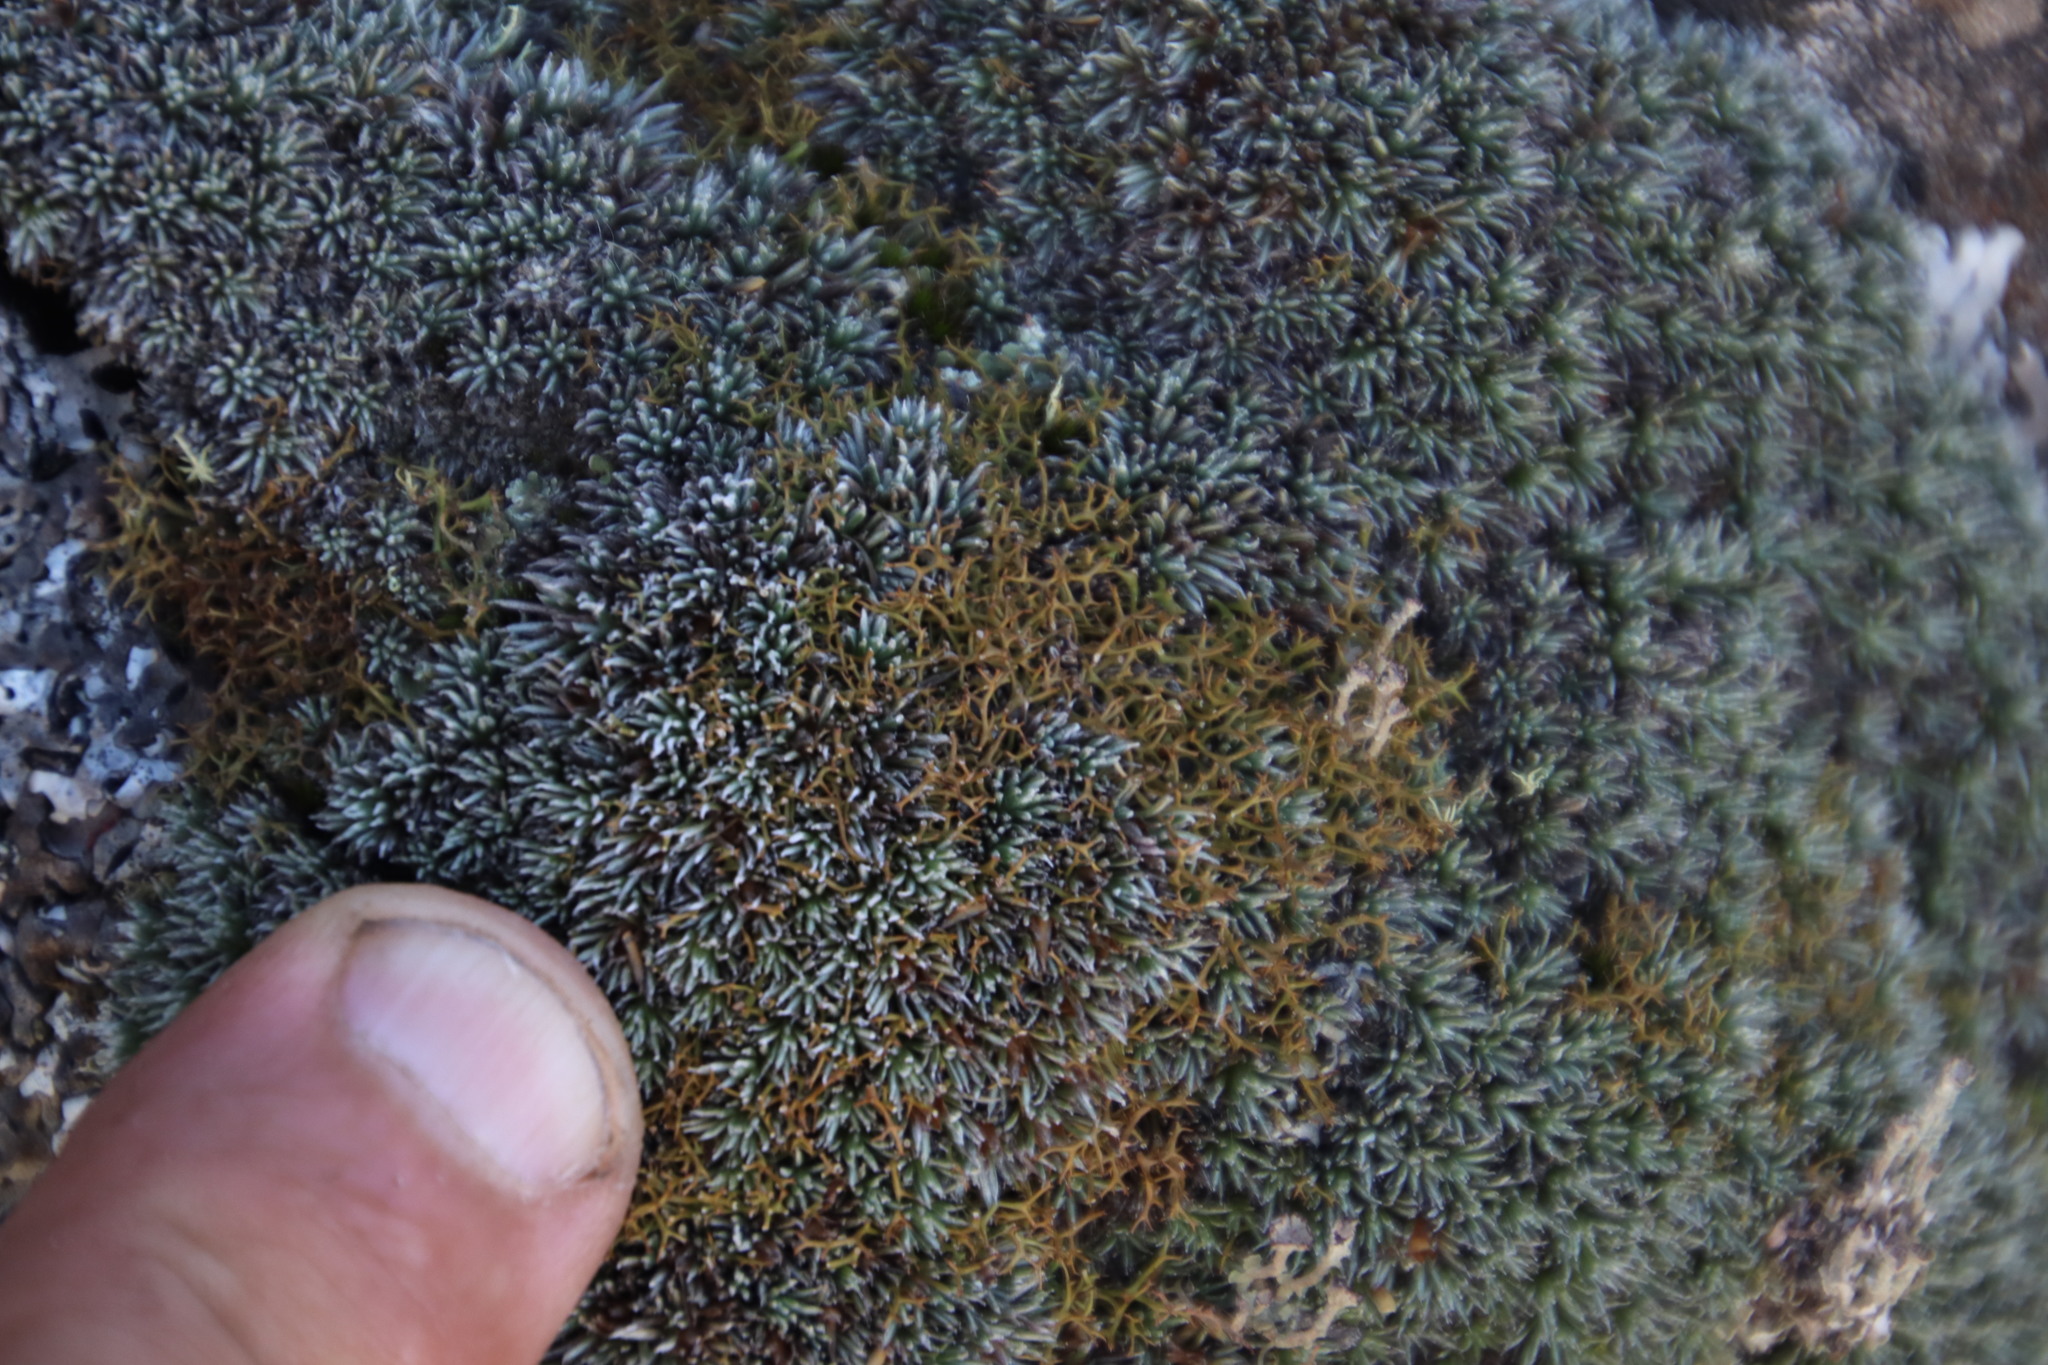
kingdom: Plantae
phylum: Tracheophyta
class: Magnoliopsida
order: Asterales
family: Asteraceae
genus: Muscosomorphe
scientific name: Muscosomorphe aretioides
